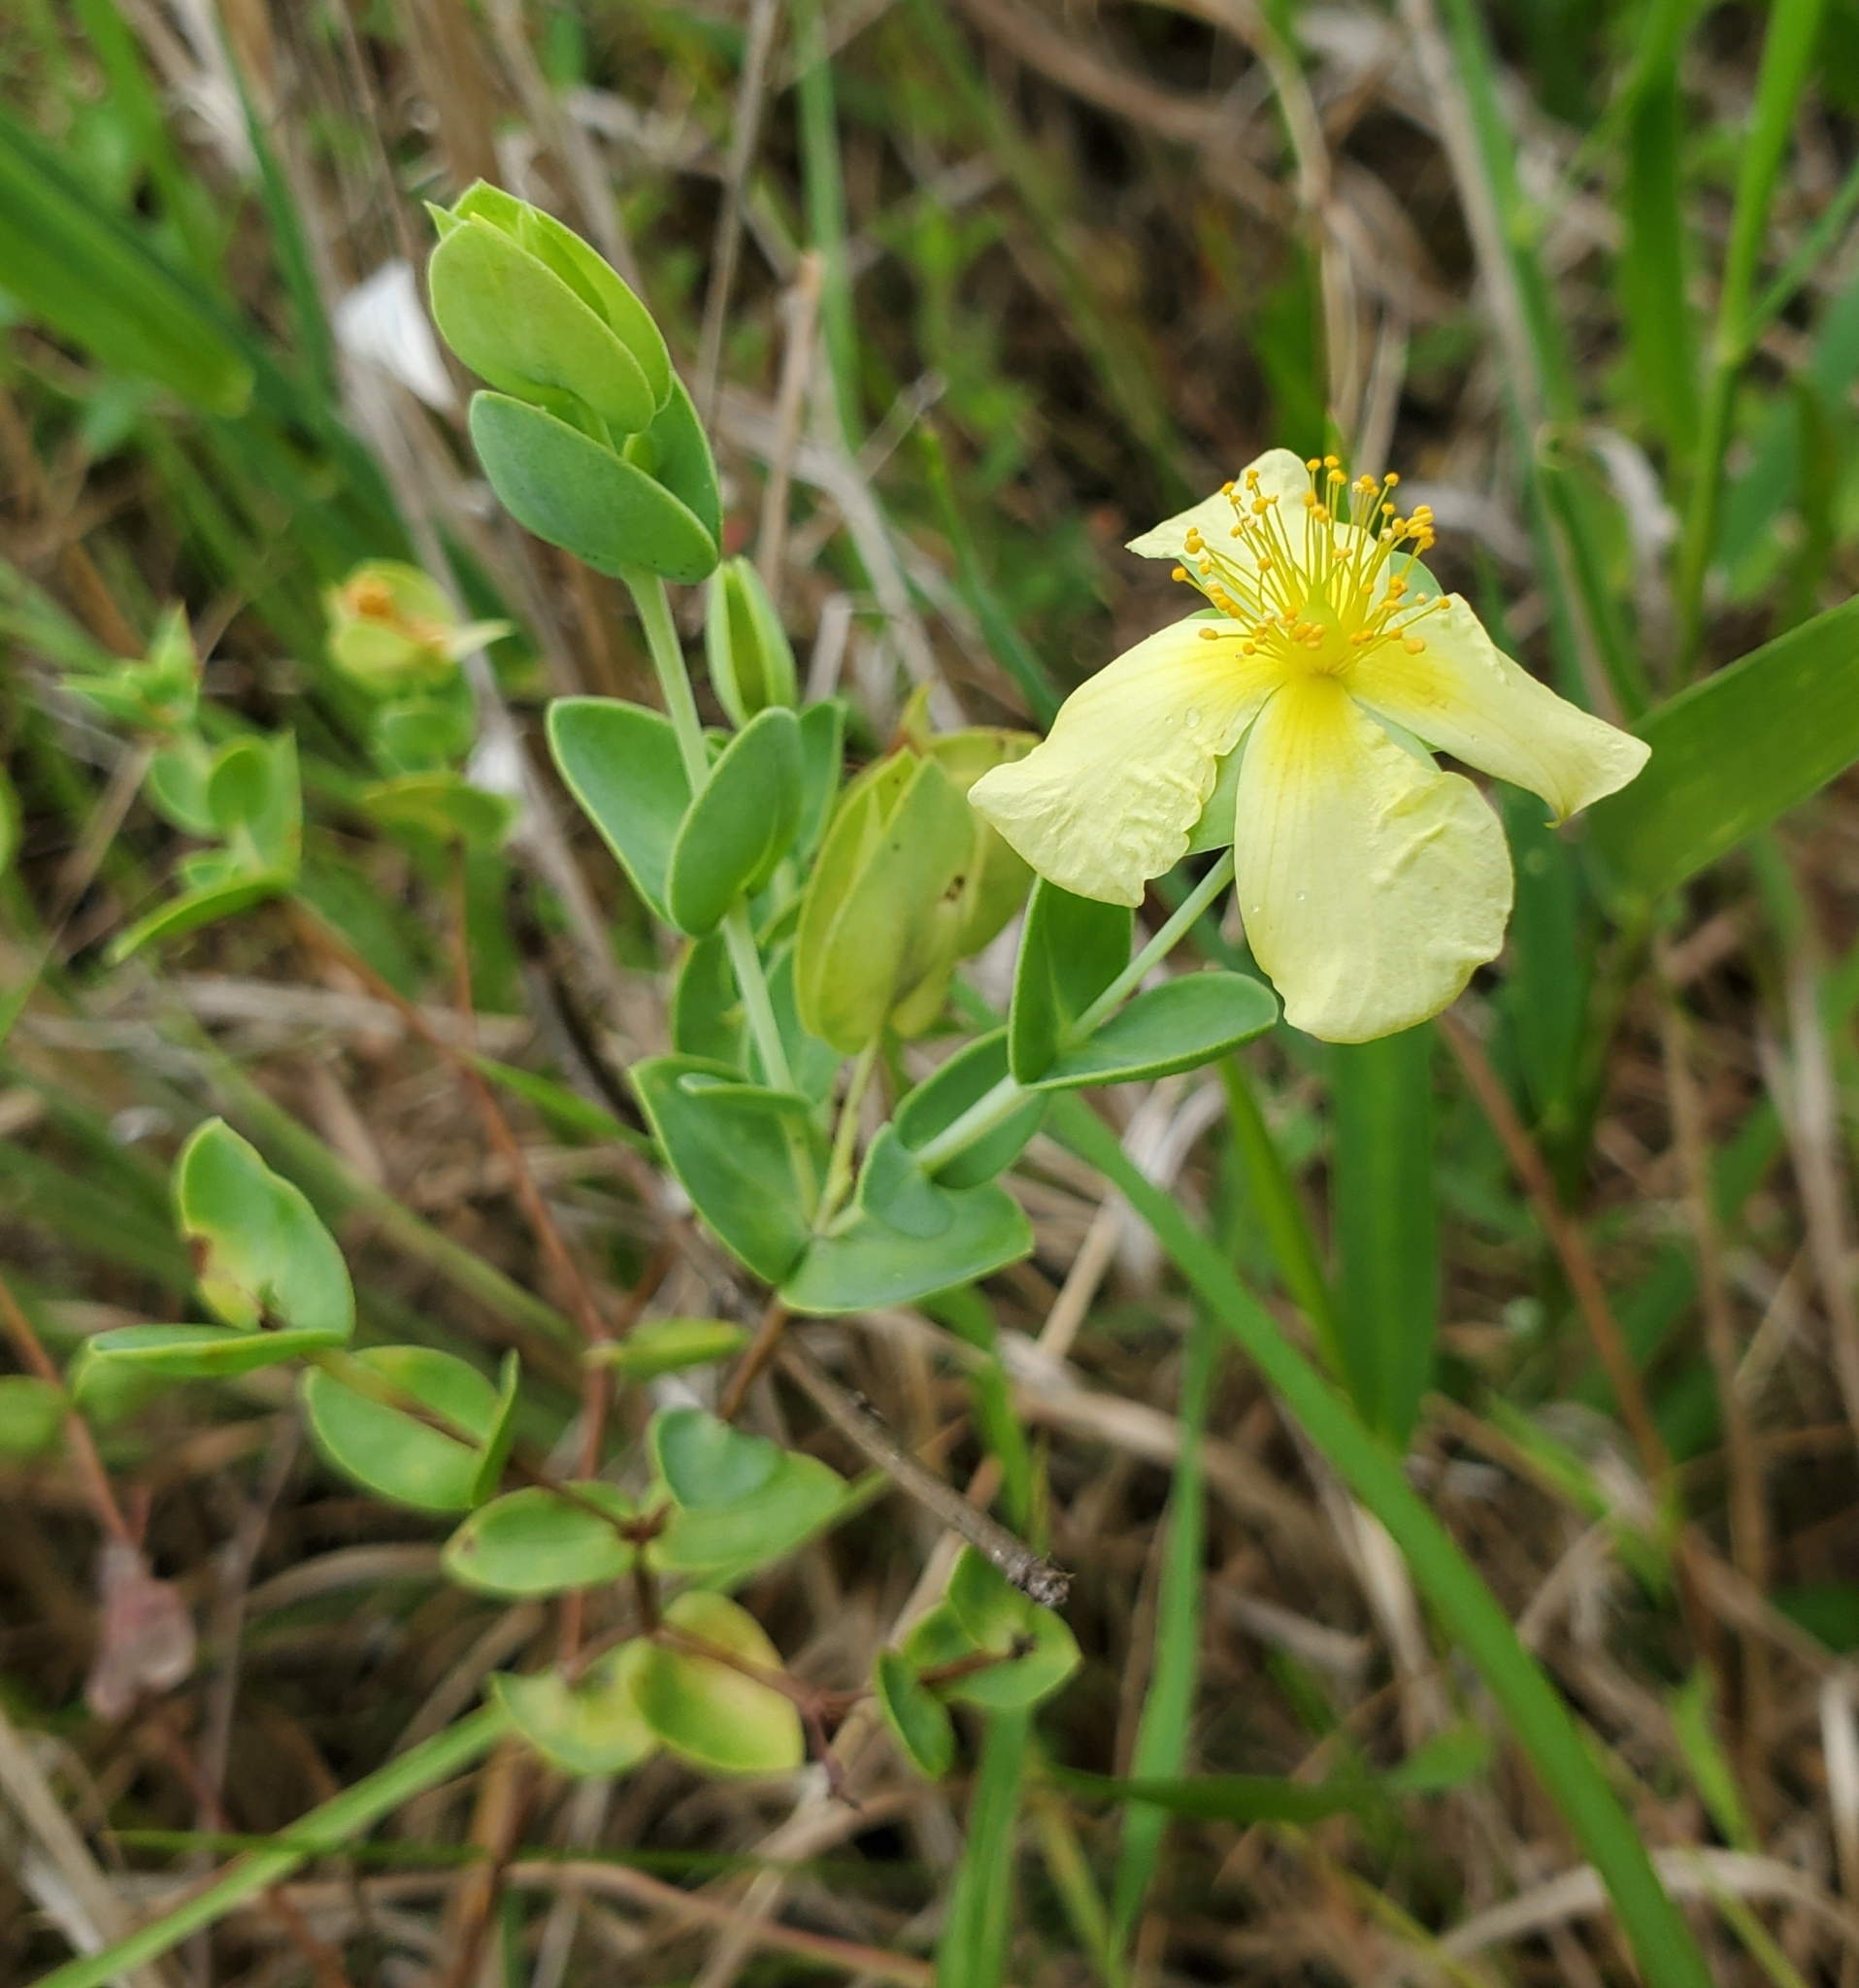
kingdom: Plantae
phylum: Tracheophyta
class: Magnoliopsida
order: Malpighiales
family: Hypericaceae
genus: Hypericum
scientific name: Hypericum tetrapetalum
